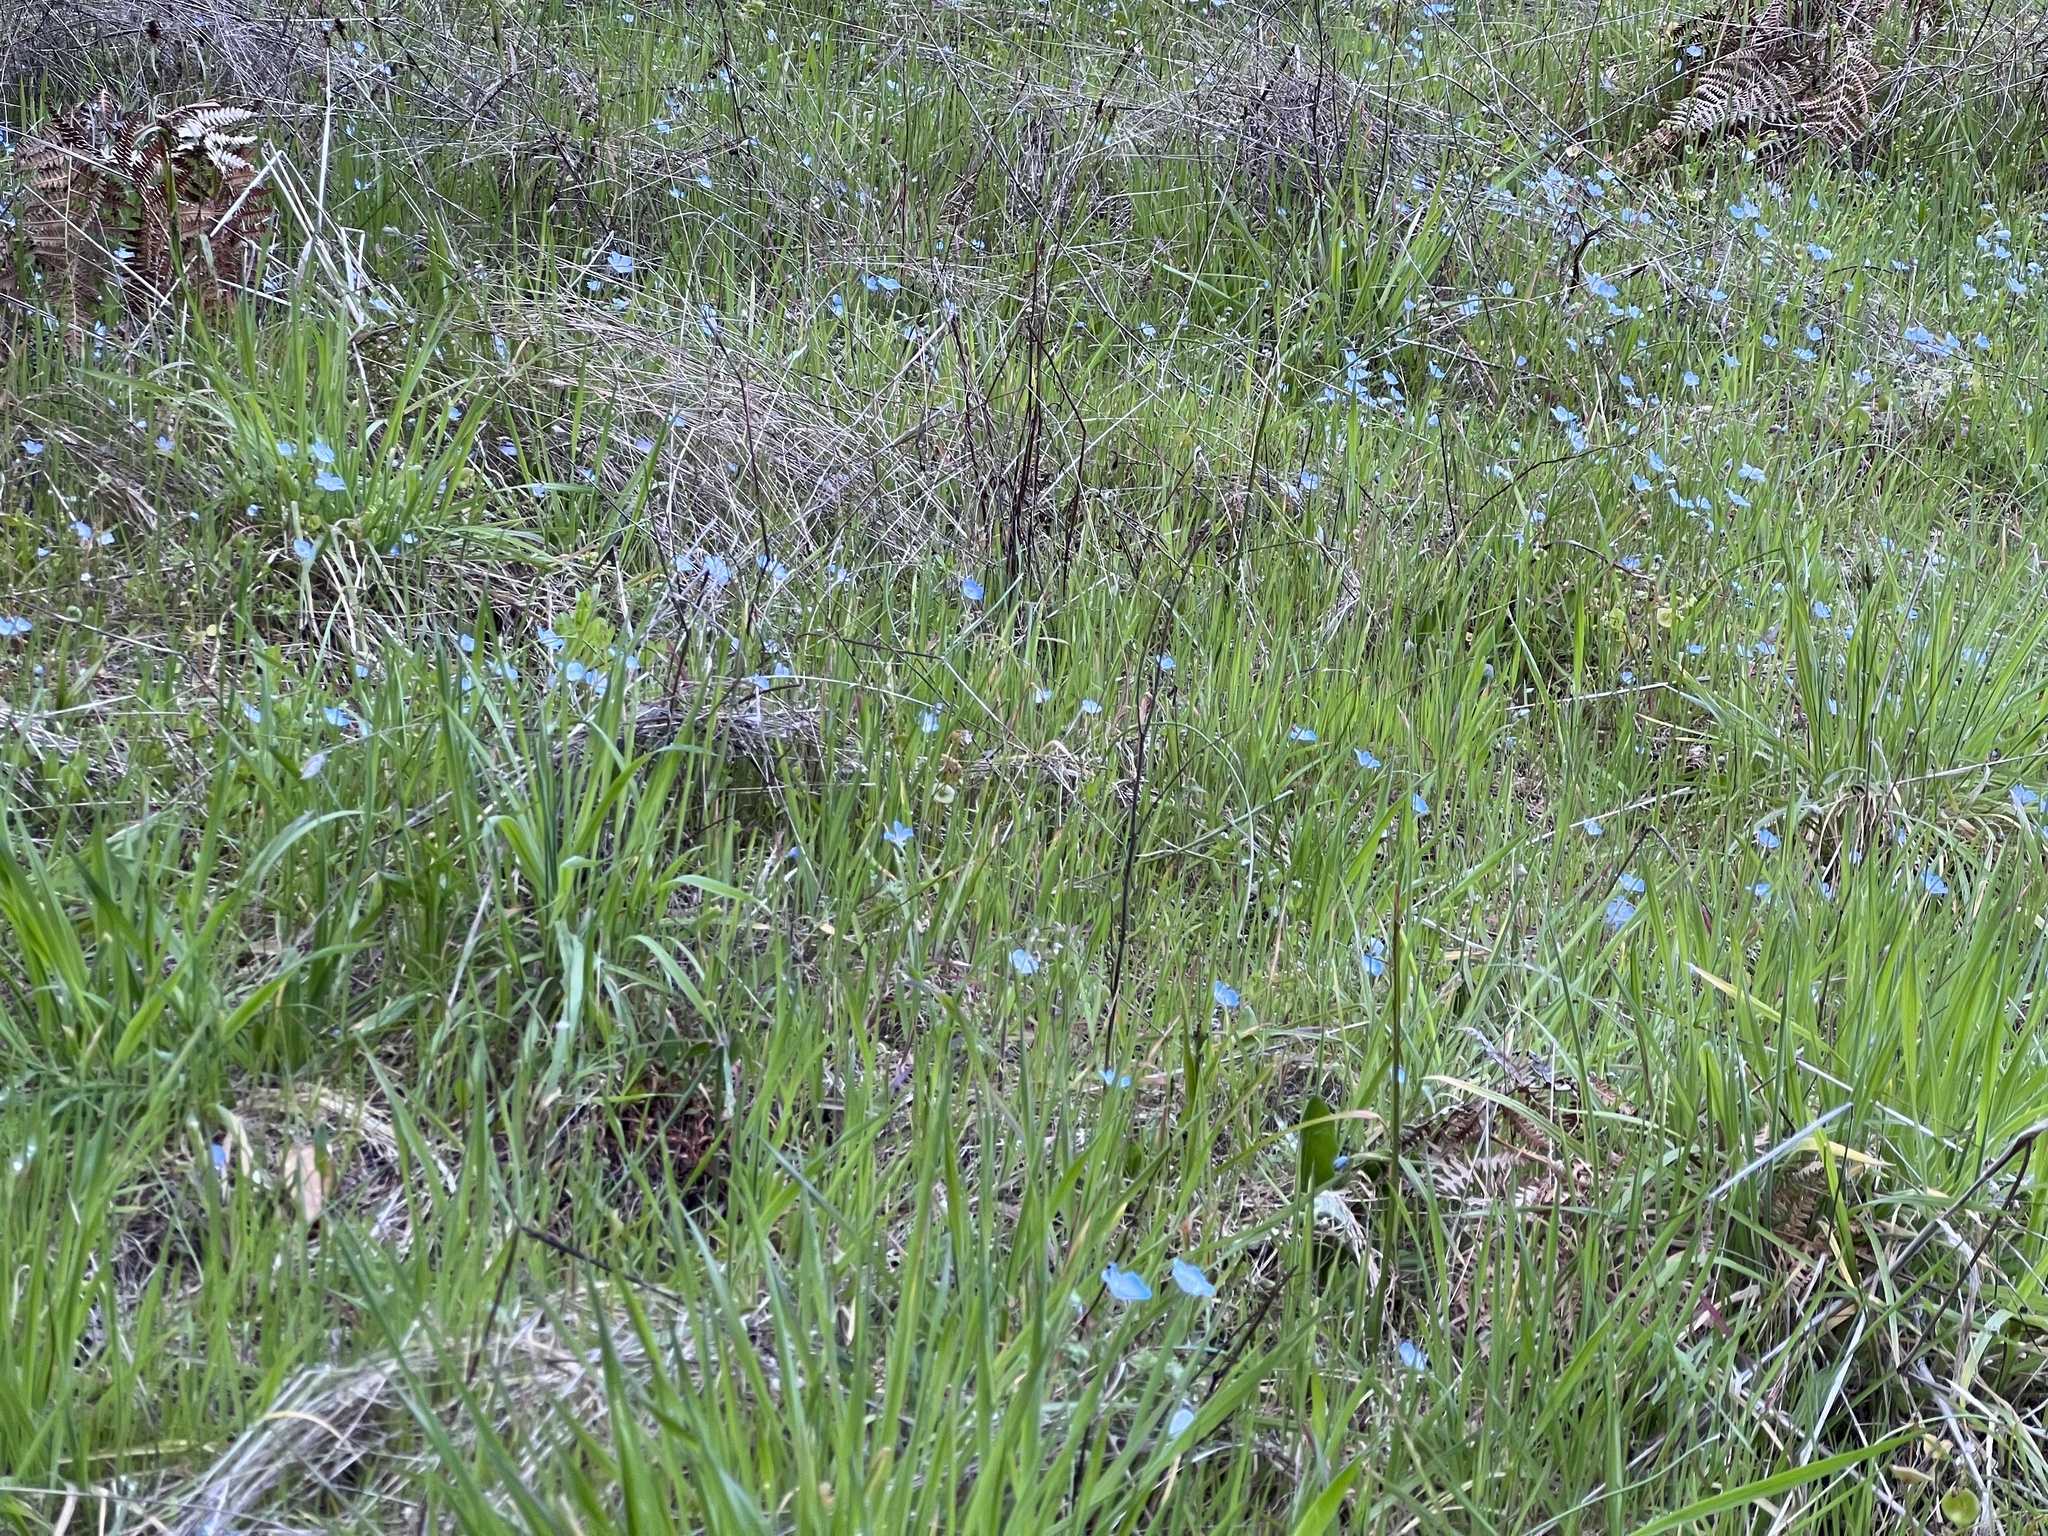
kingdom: Plantae
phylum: Tracheophyta
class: Magnoliopsida
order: Boraginales
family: Hydrophyllaceae
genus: Nemophila
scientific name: Nemophila menziesii
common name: Baby's-blue-eyes
